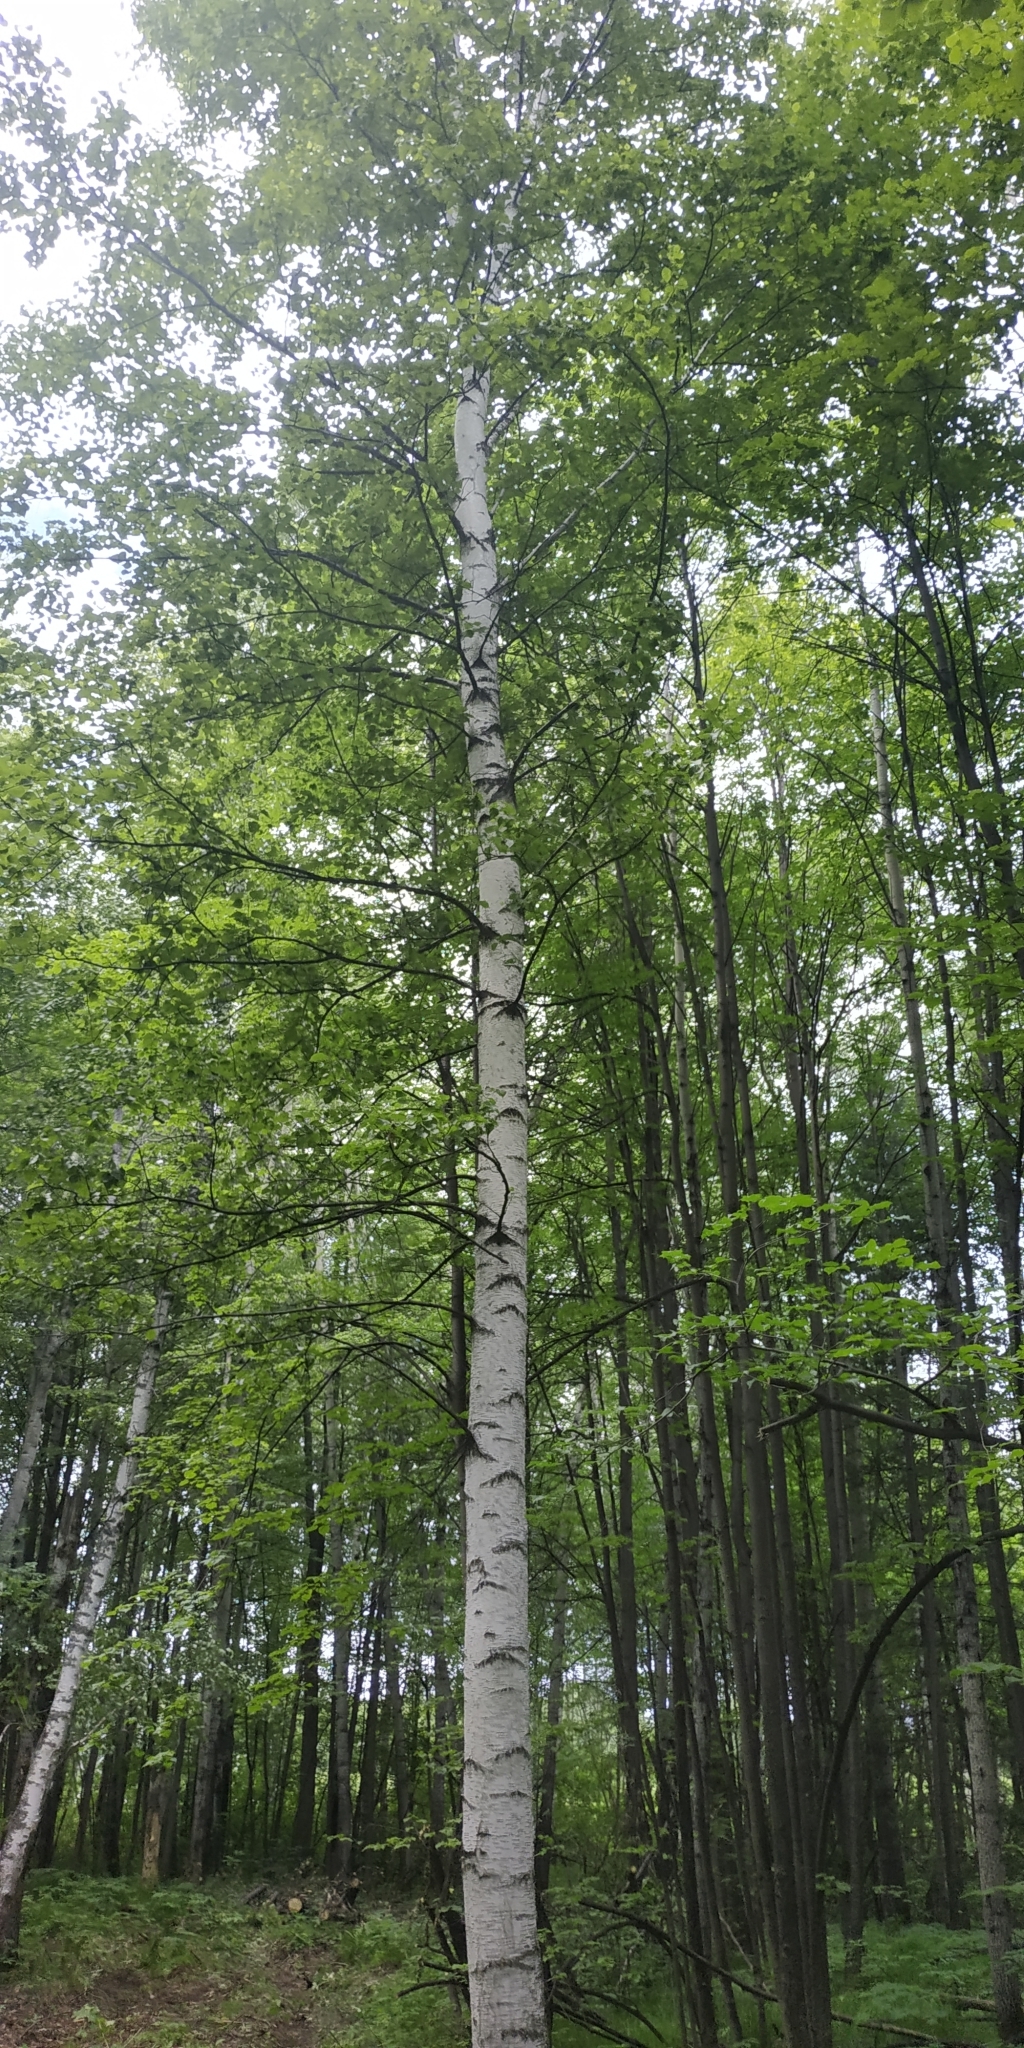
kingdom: Plantae
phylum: Tracheophyta
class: Magnoliopsida
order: Fagales
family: Betulaceae
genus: Betula
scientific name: Betula pendula
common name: Silver birch
